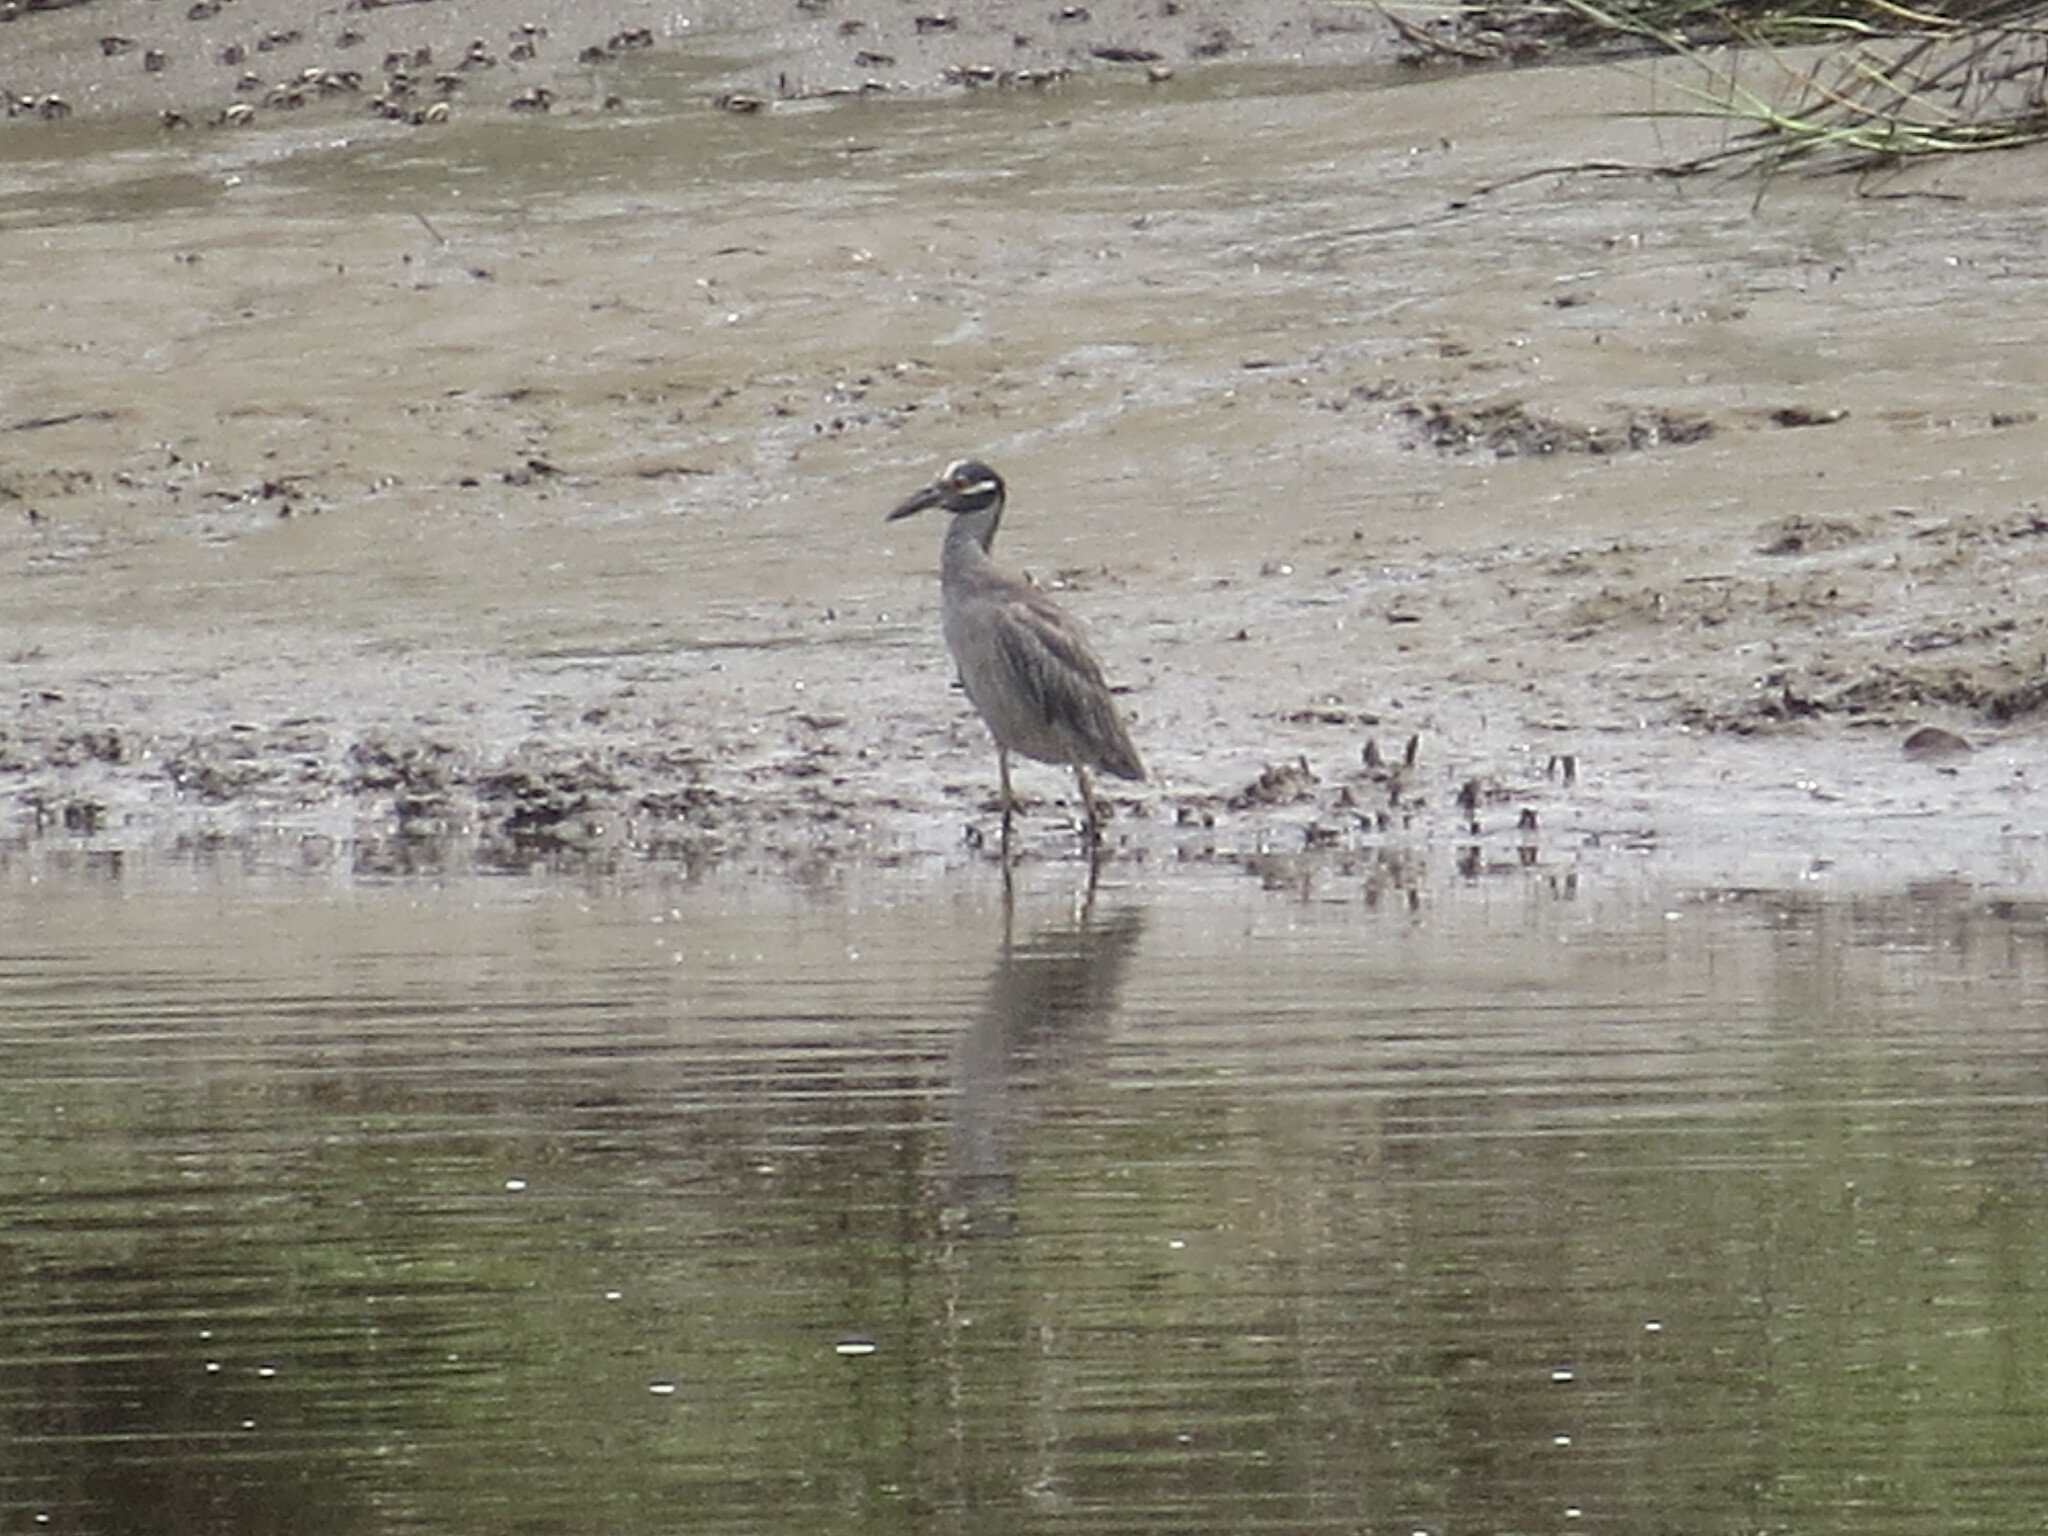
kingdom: Animalia
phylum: Chordata
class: Aves
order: Pelecaniformes
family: Ardeidae
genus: Nyctanassa
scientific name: Nyctanassa violacea
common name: Yellow-crowned night heron
